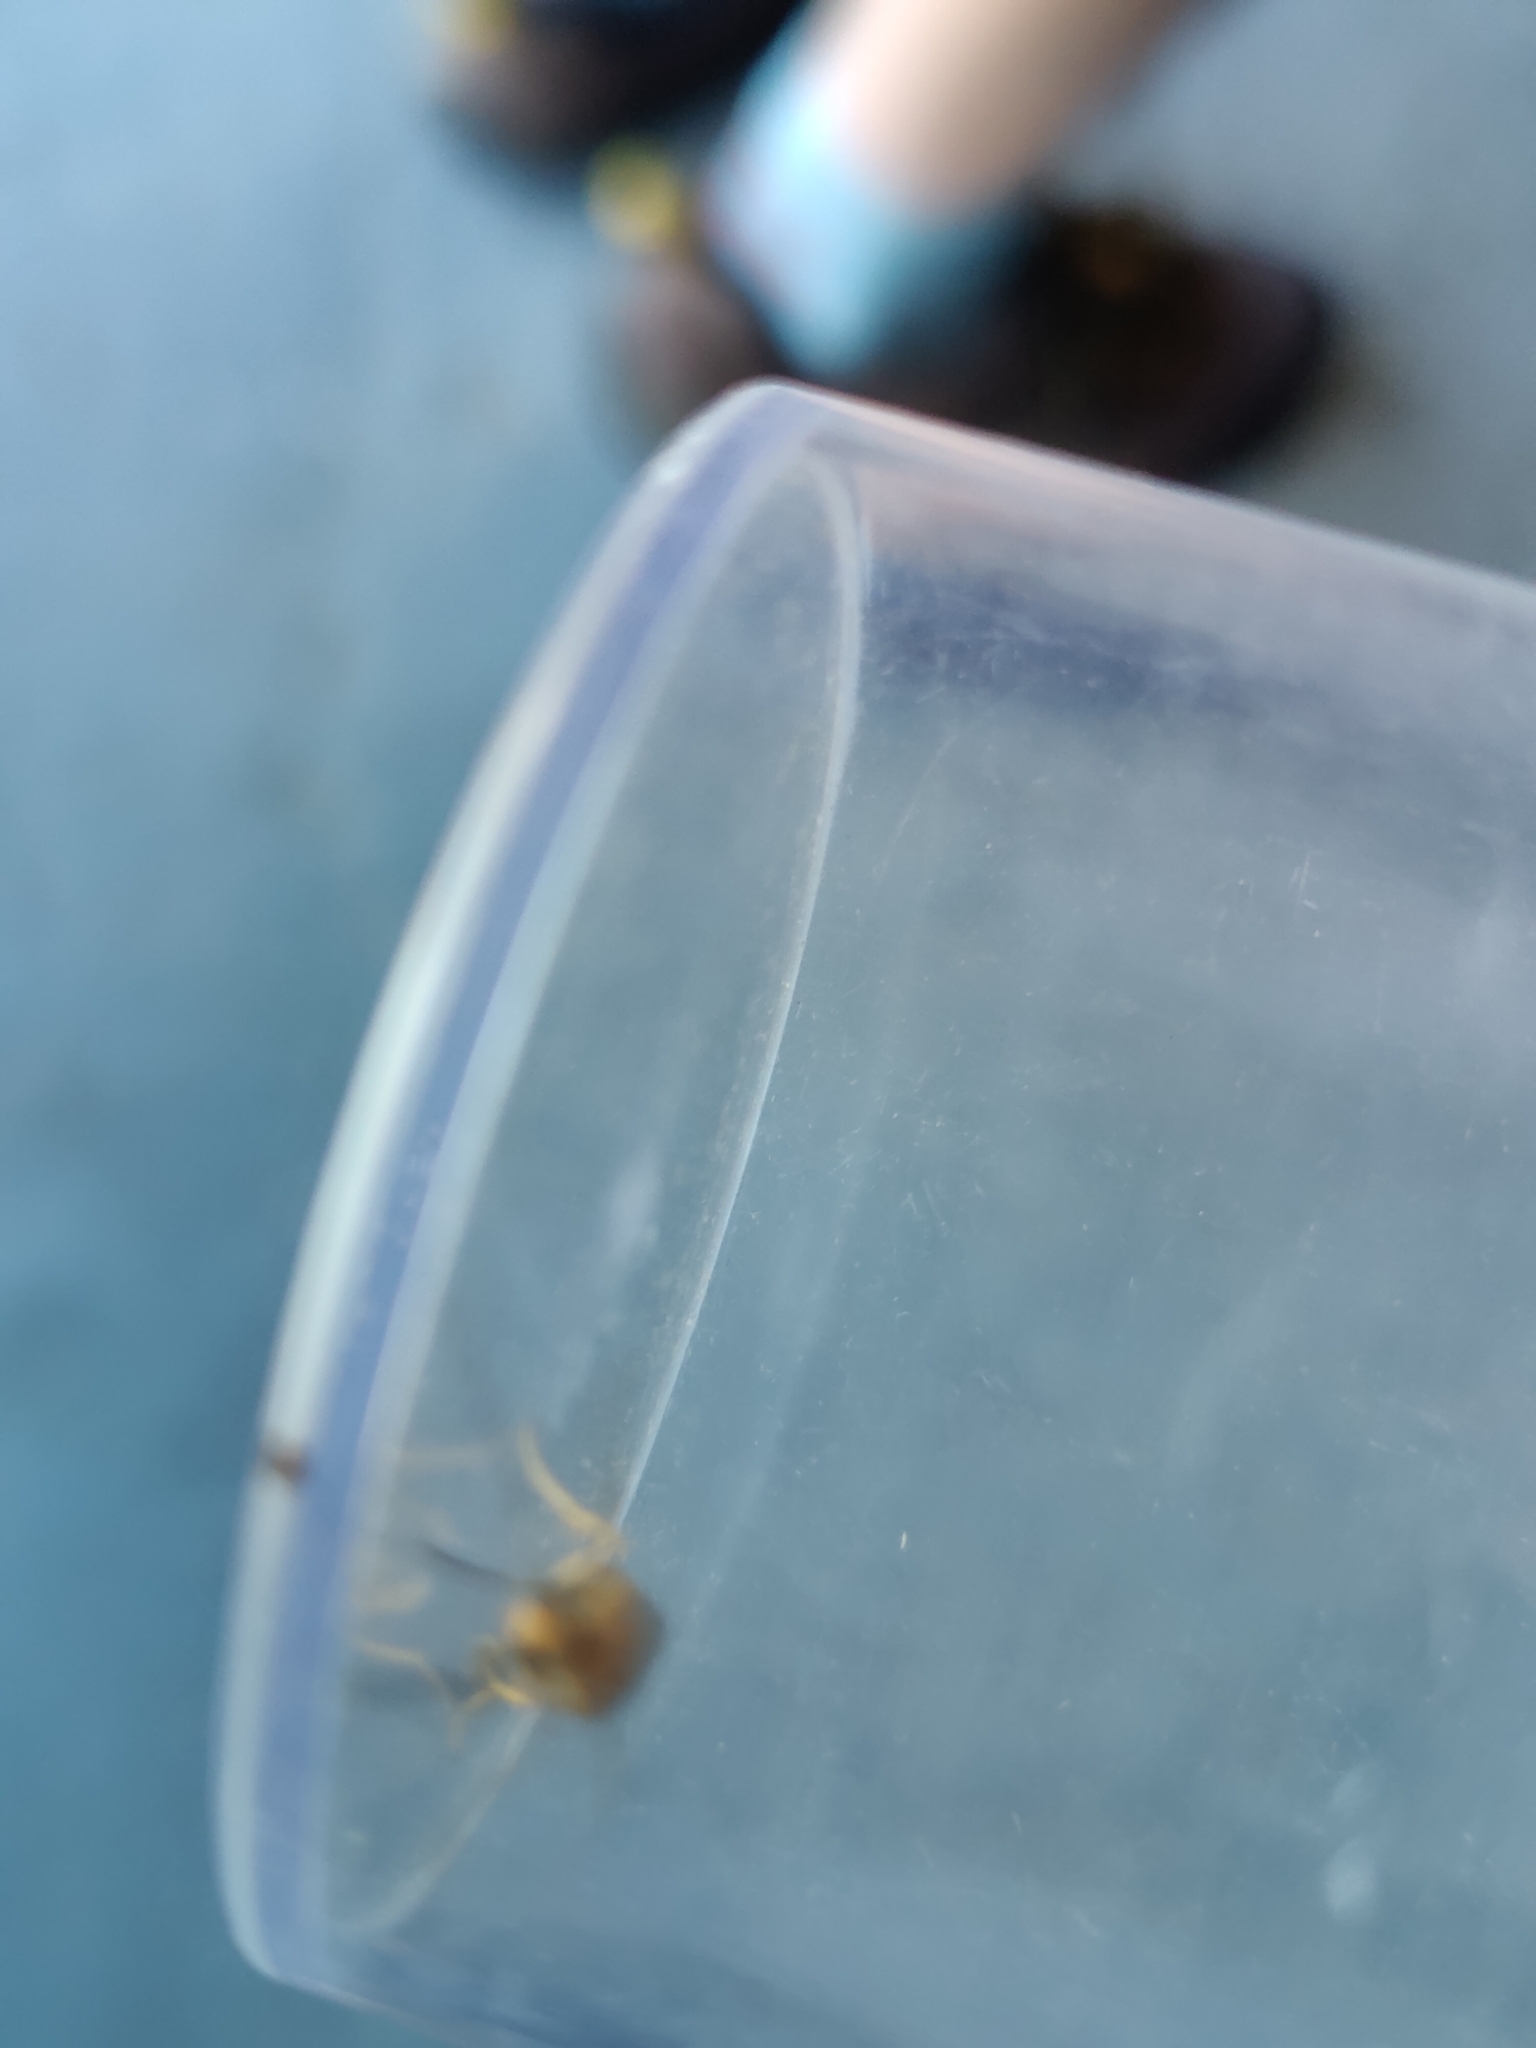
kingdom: Animalia
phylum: Arthropoda
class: Insecta
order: Lepidoptera
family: Erebidae
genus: Manulea
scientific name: Manulea complana
